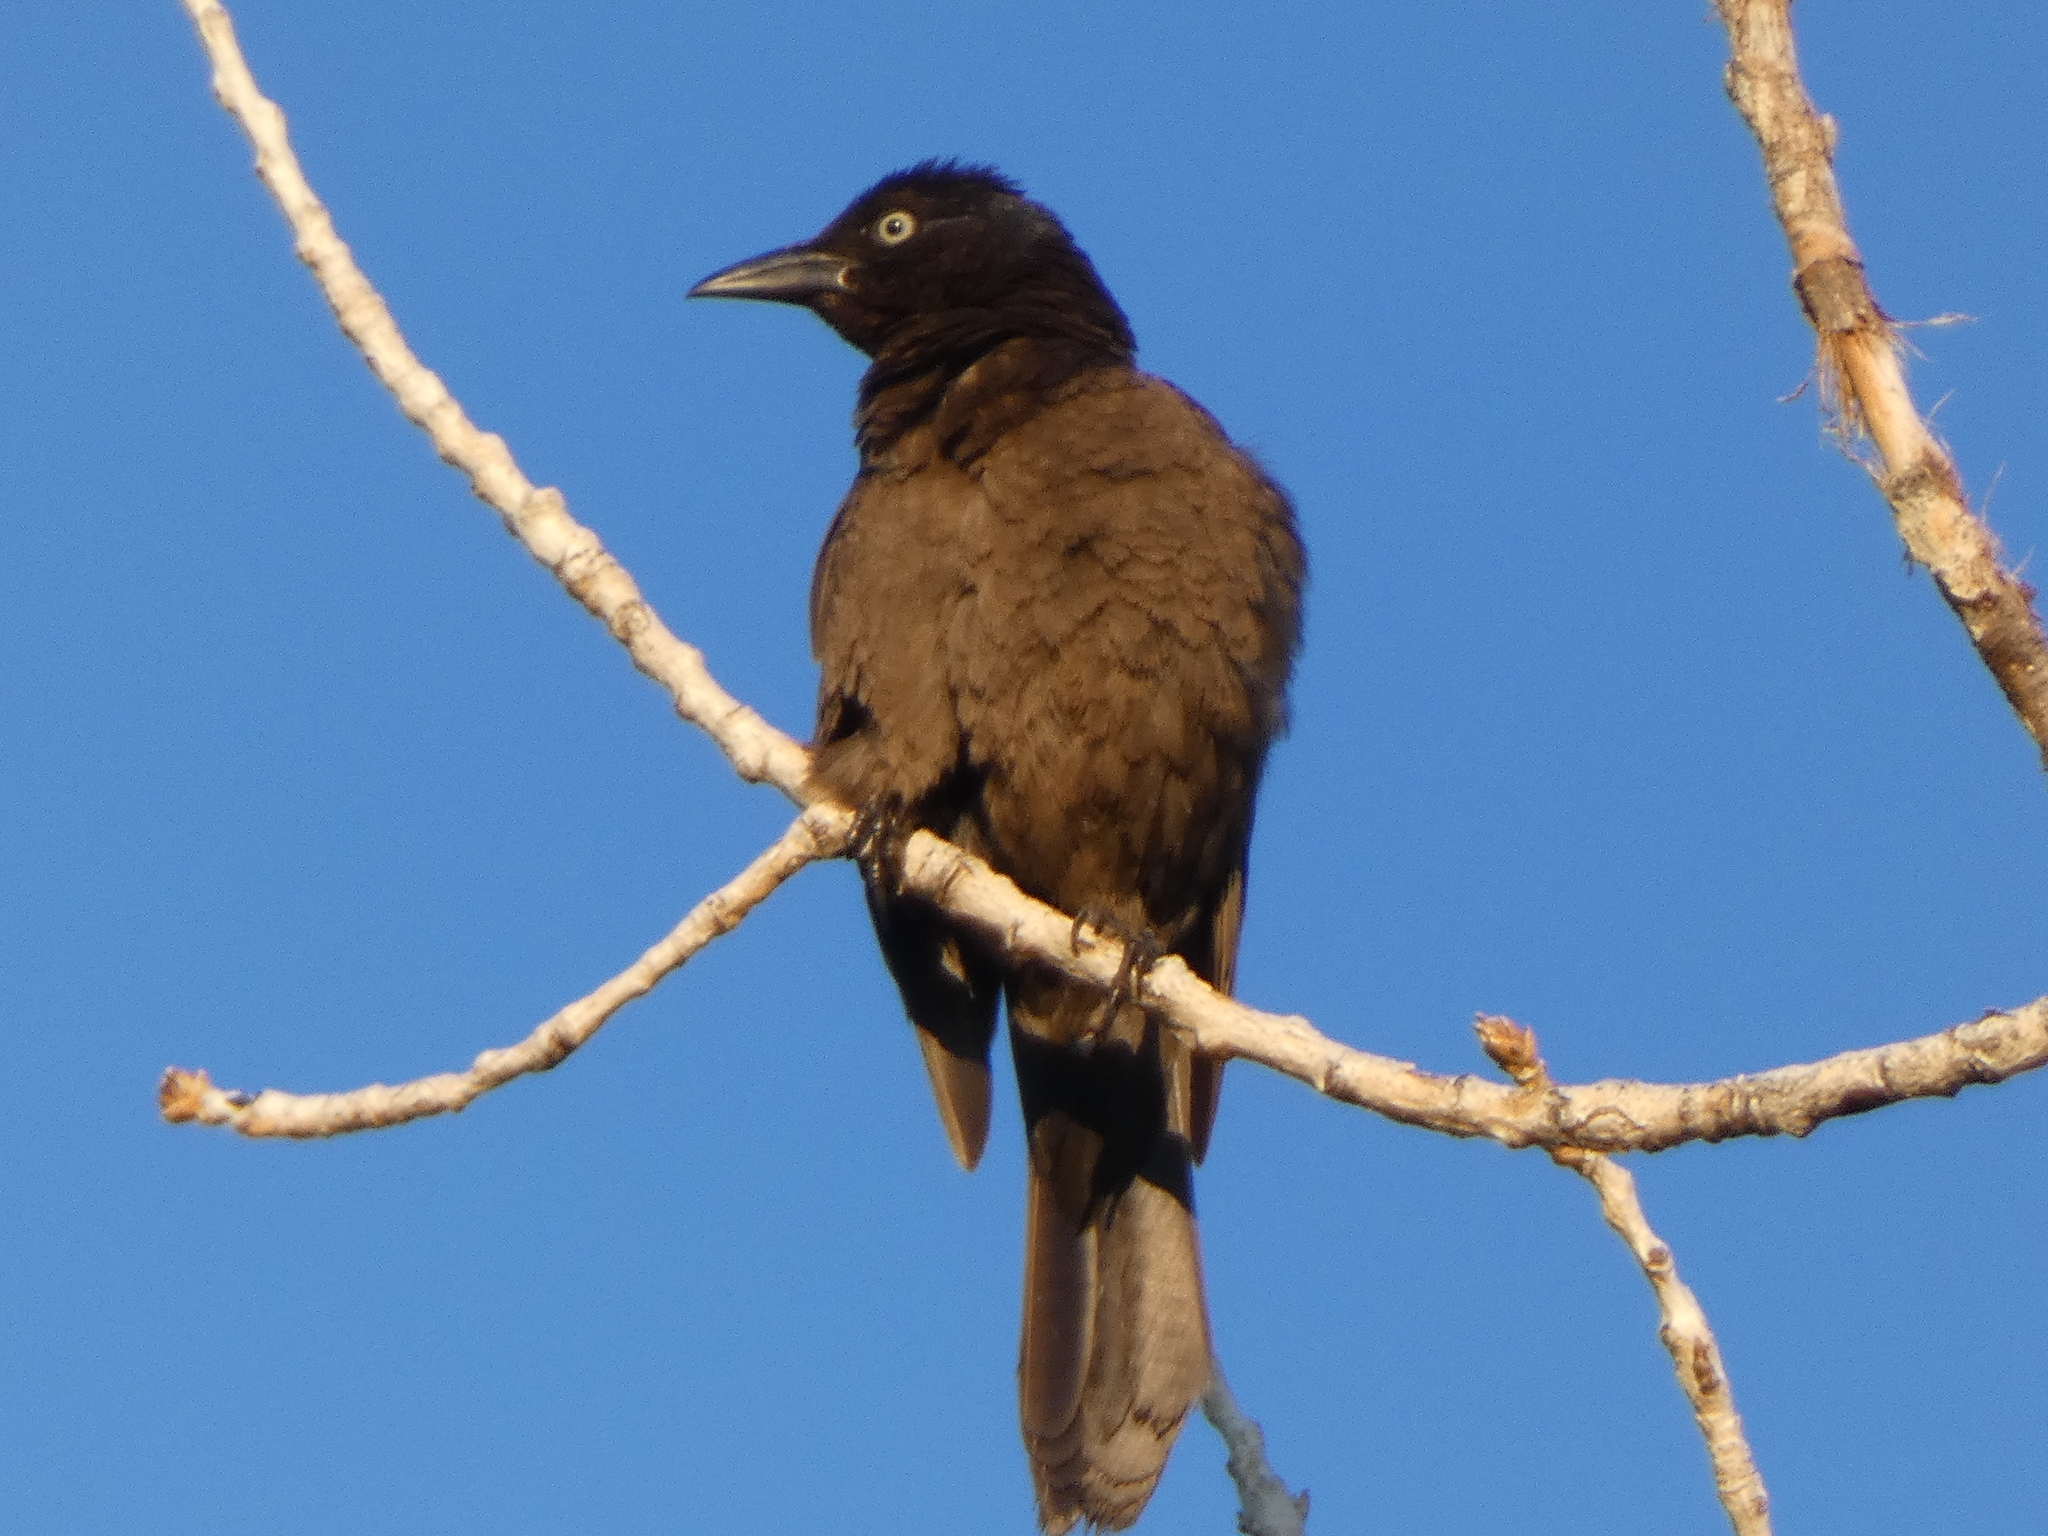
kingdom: Animalia
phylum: Chordata
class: Aves
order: Passeriformes
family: Icteridae
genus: Quiscalus
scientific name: Quiscalus quiscula
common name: Common grackle
